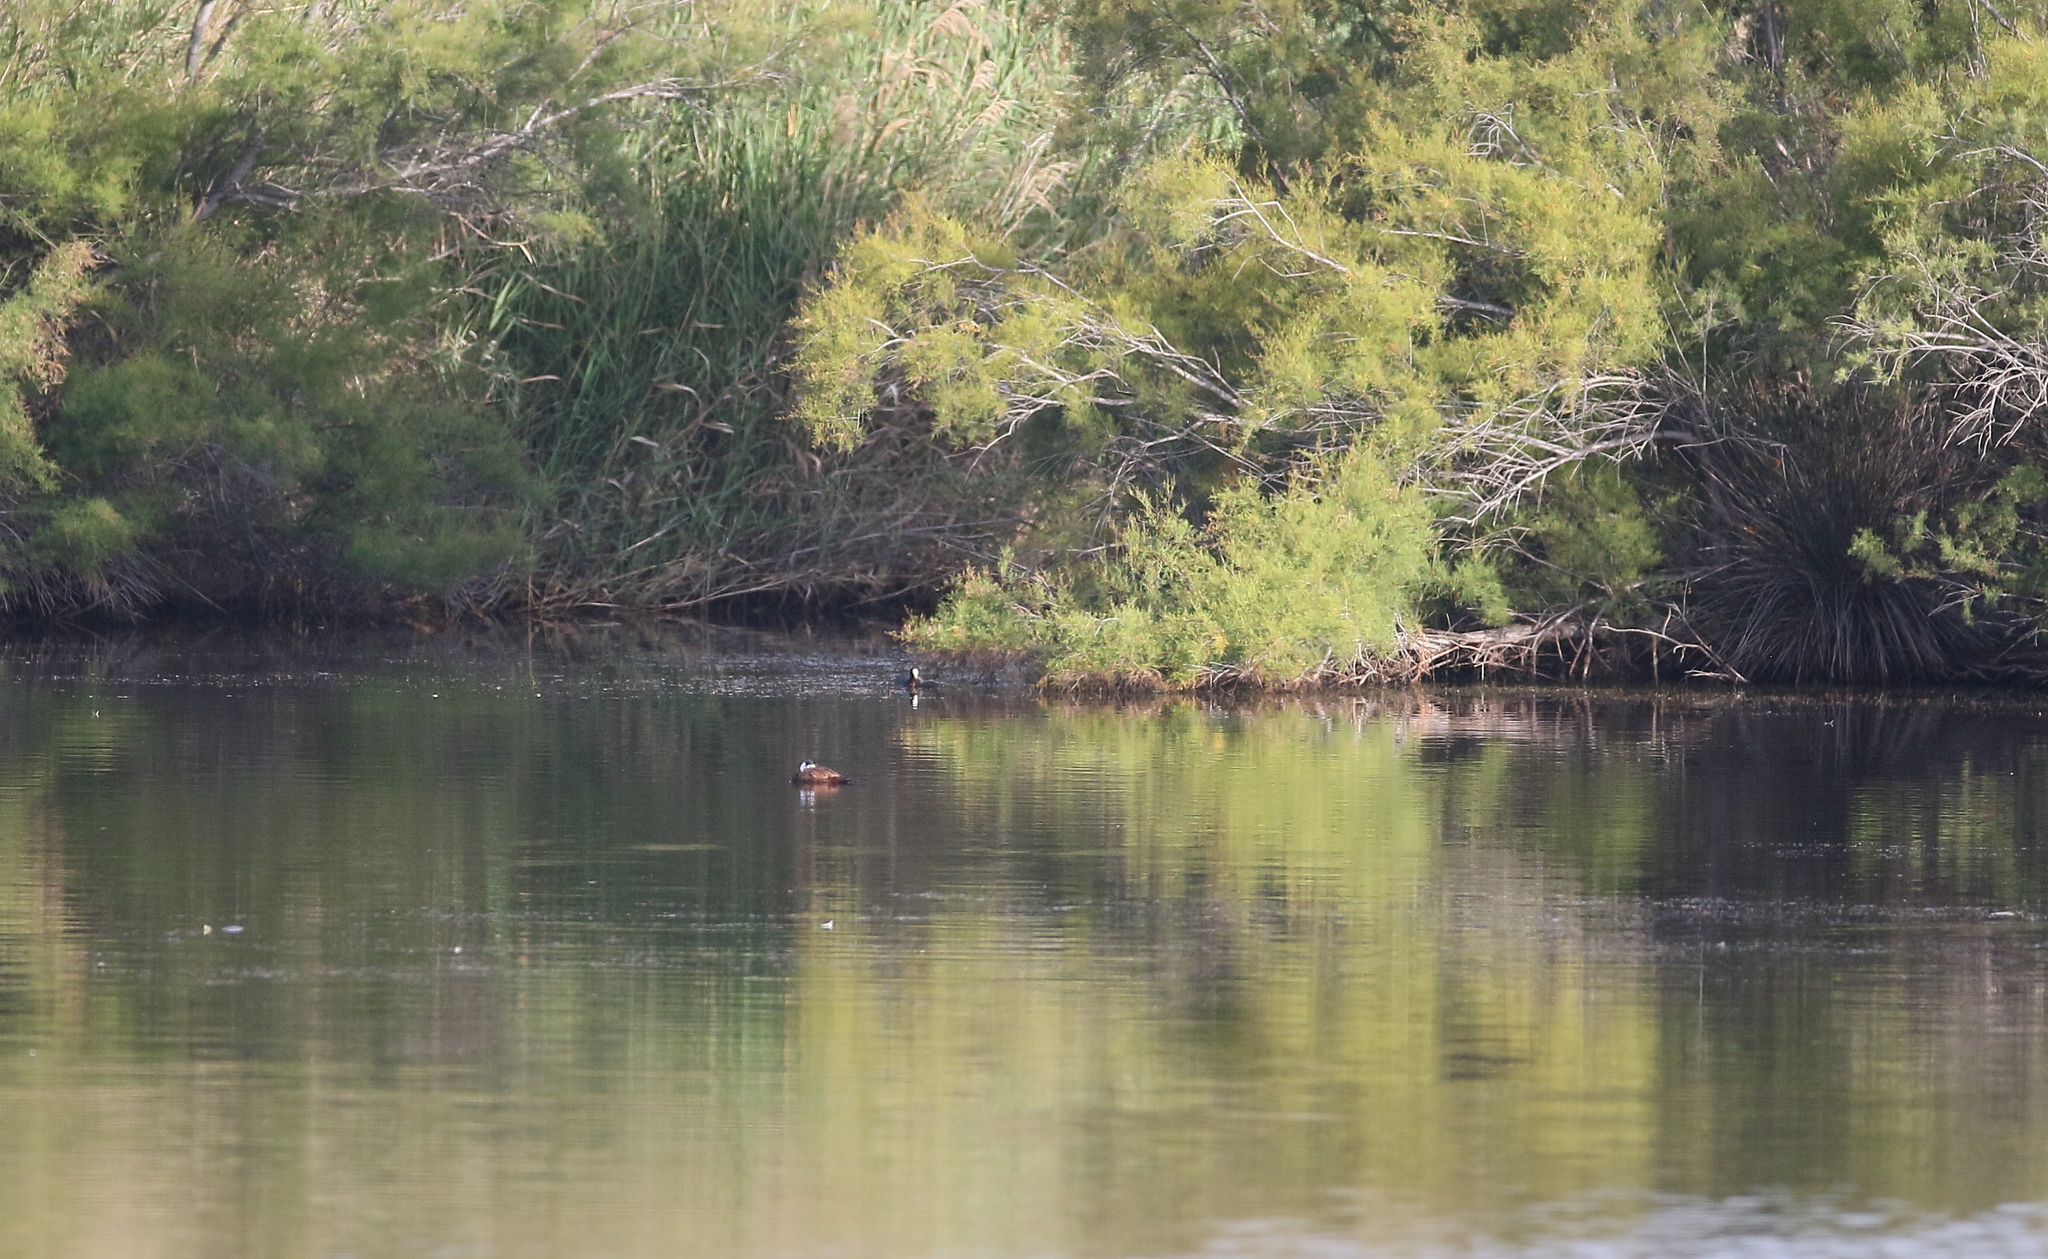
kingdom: Animalia
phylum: Chordata
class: Aves
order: Anseriformes
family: Anatidae
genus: Oxyura
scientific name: Oxyura leucocephala
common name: White-headed duck
